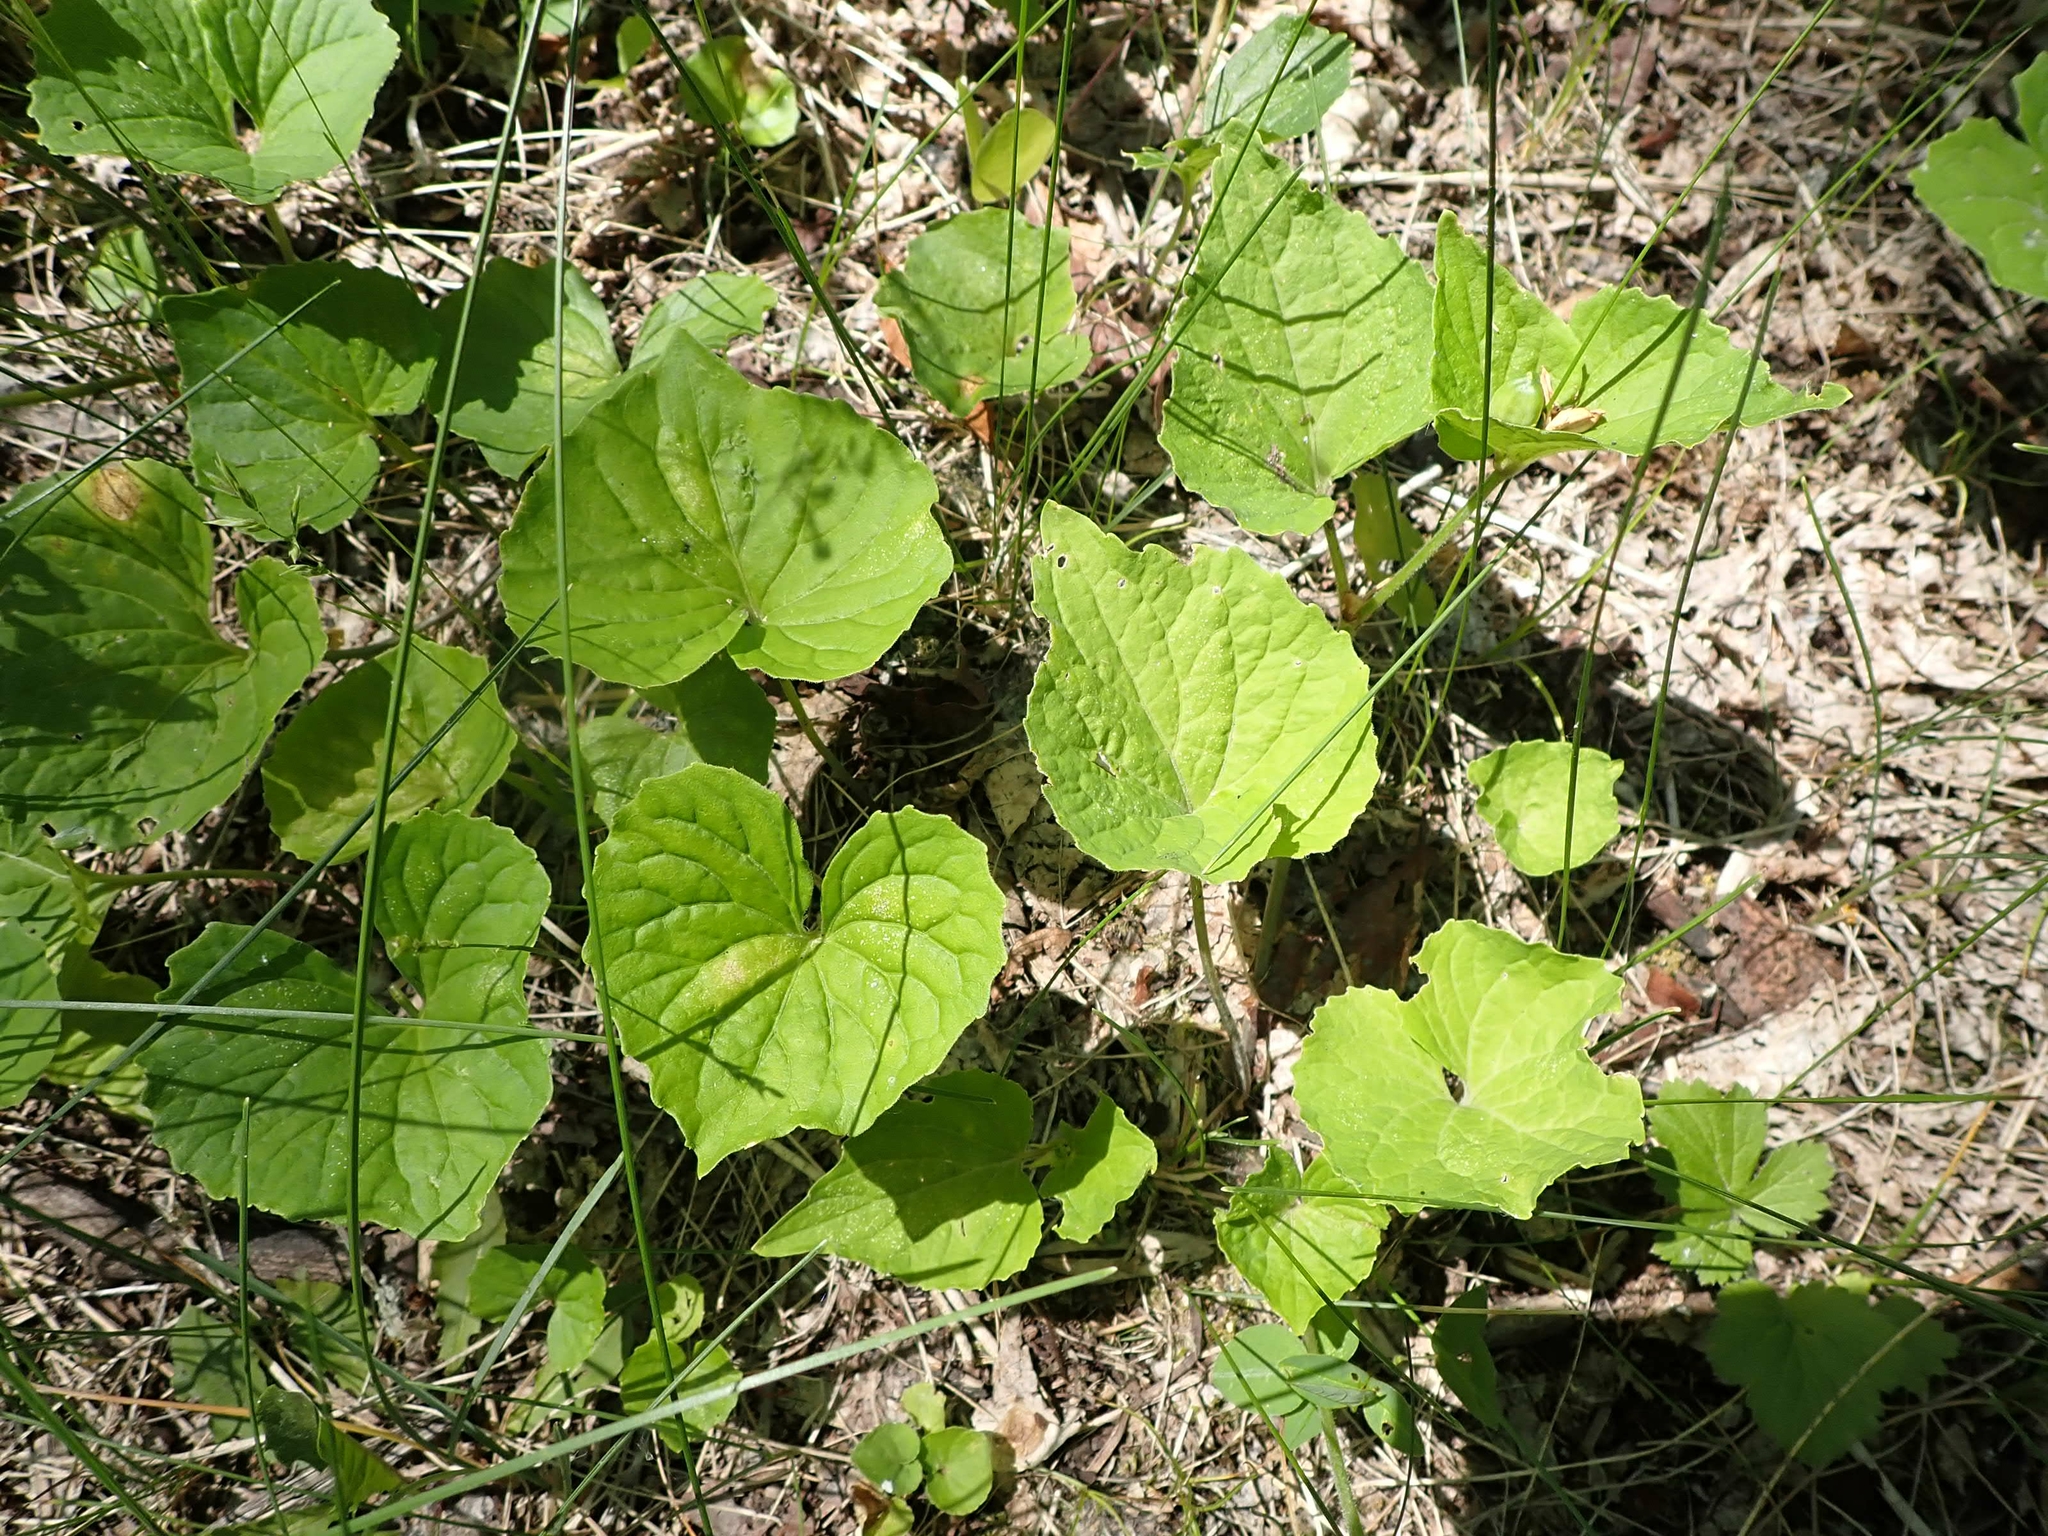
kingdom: Plantae
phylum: Tracheophyta
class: Magnoliopsida
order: Malpighiales
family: Violaceae
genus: Viola
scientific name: Viola eriocarpa
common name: Smooth yellow violet
